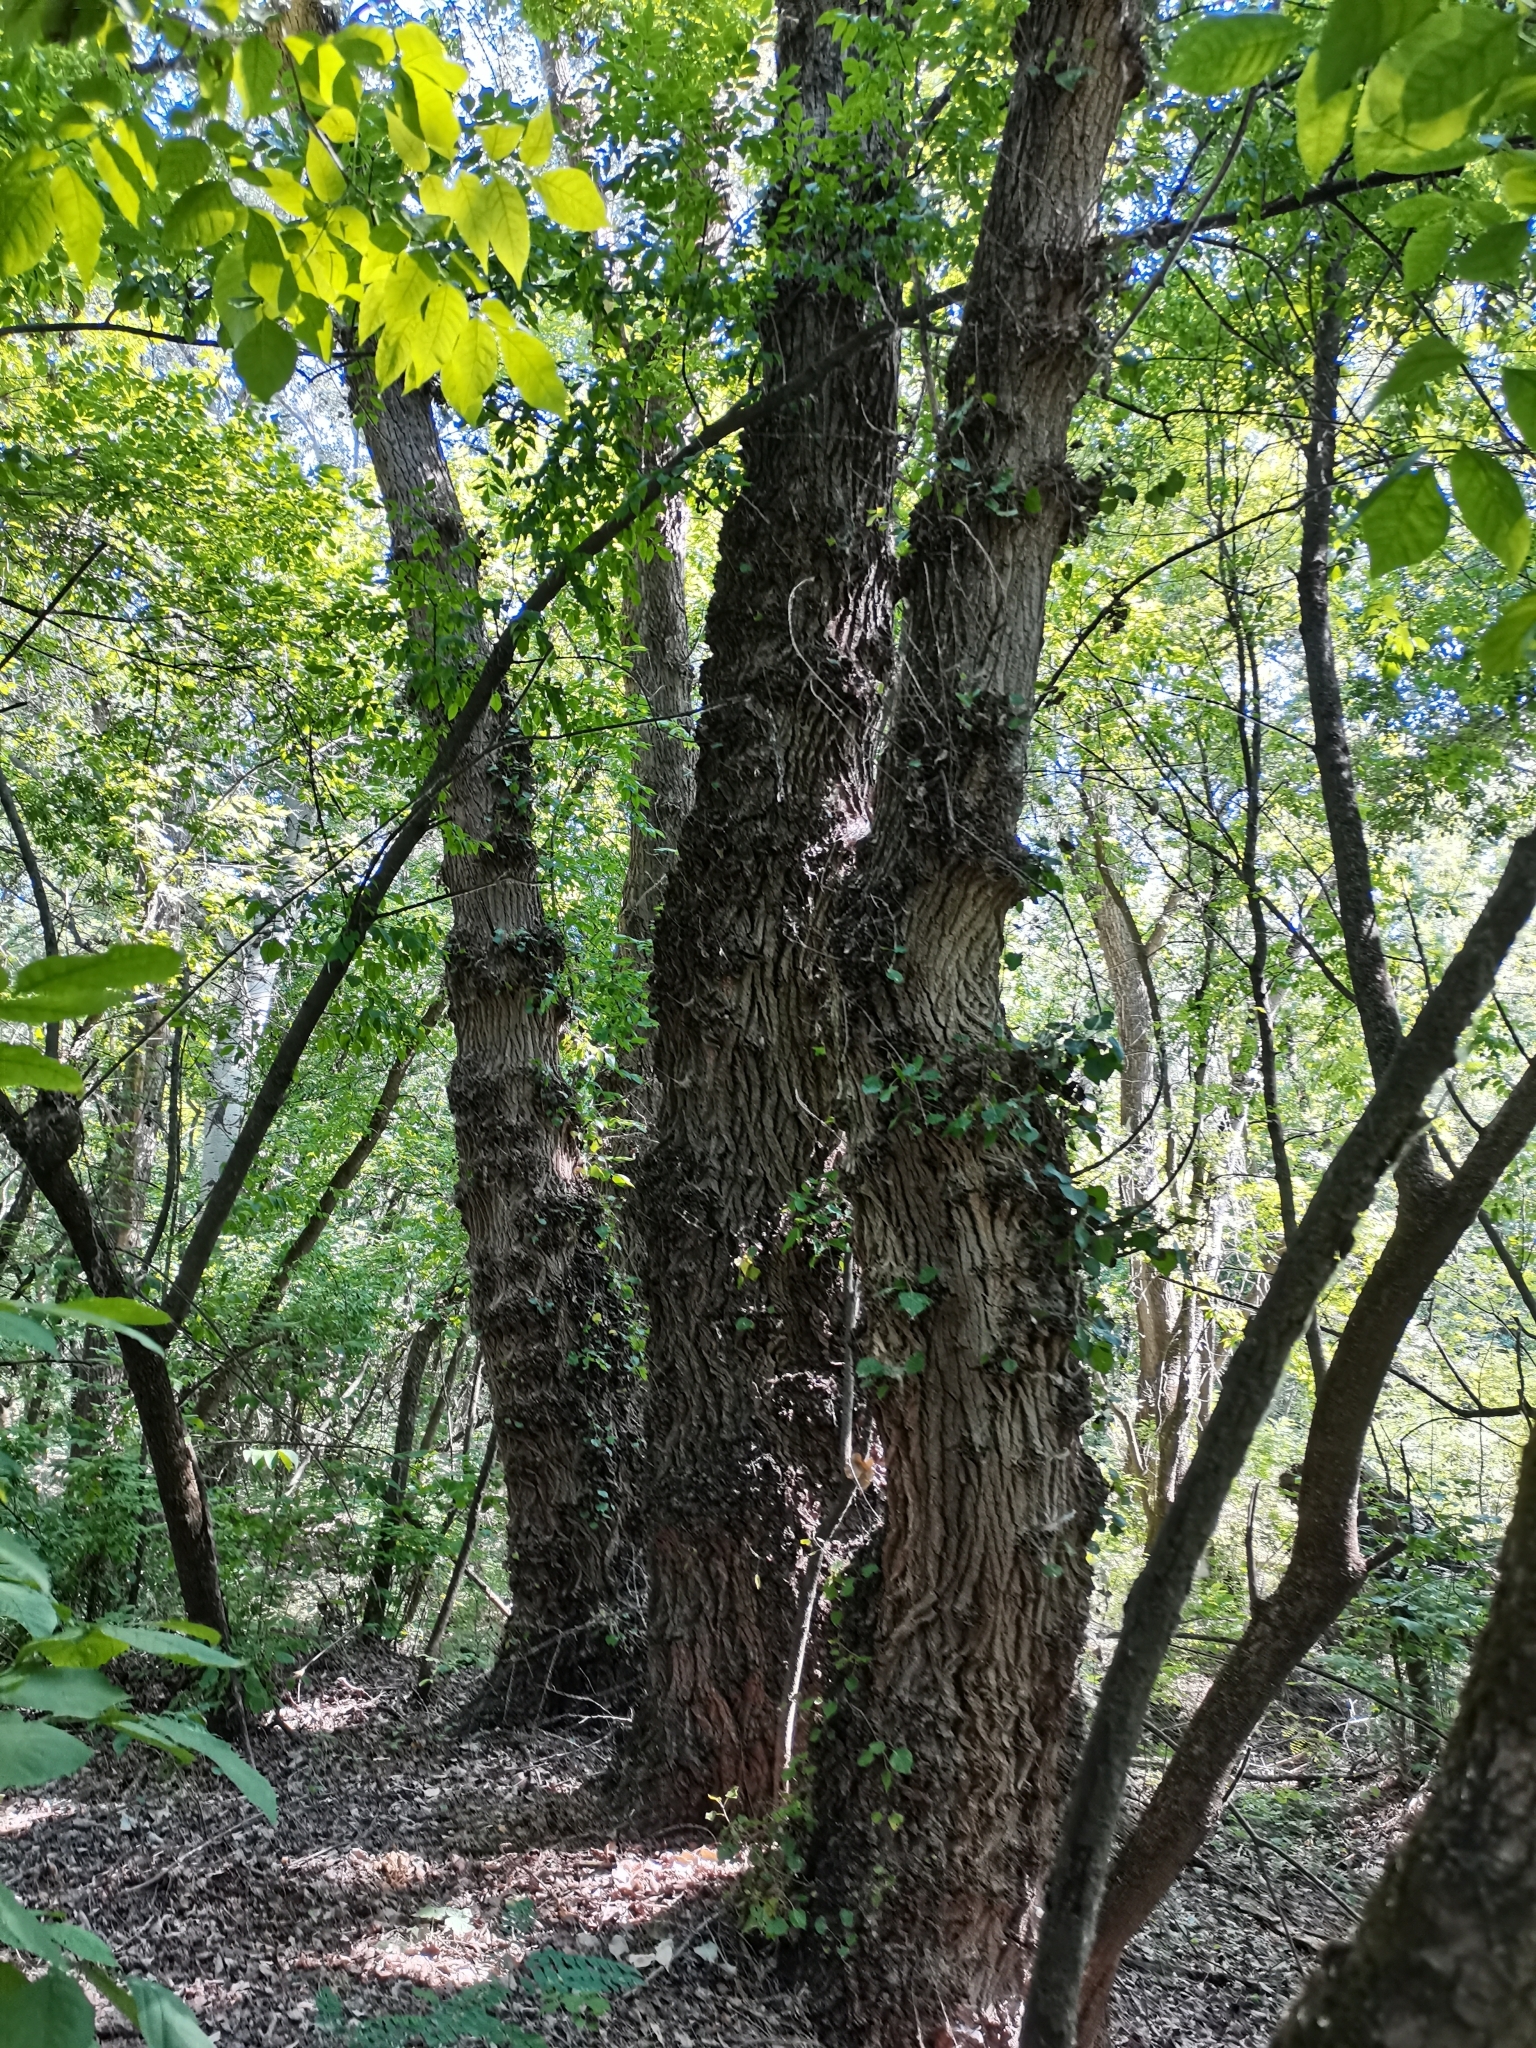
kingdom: Plantae
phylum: Tracheophyta
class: Magnoliopsida
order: Malpighiales
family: Salicaceae
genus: Populus
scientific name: Populus nigra
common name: Black poplar
